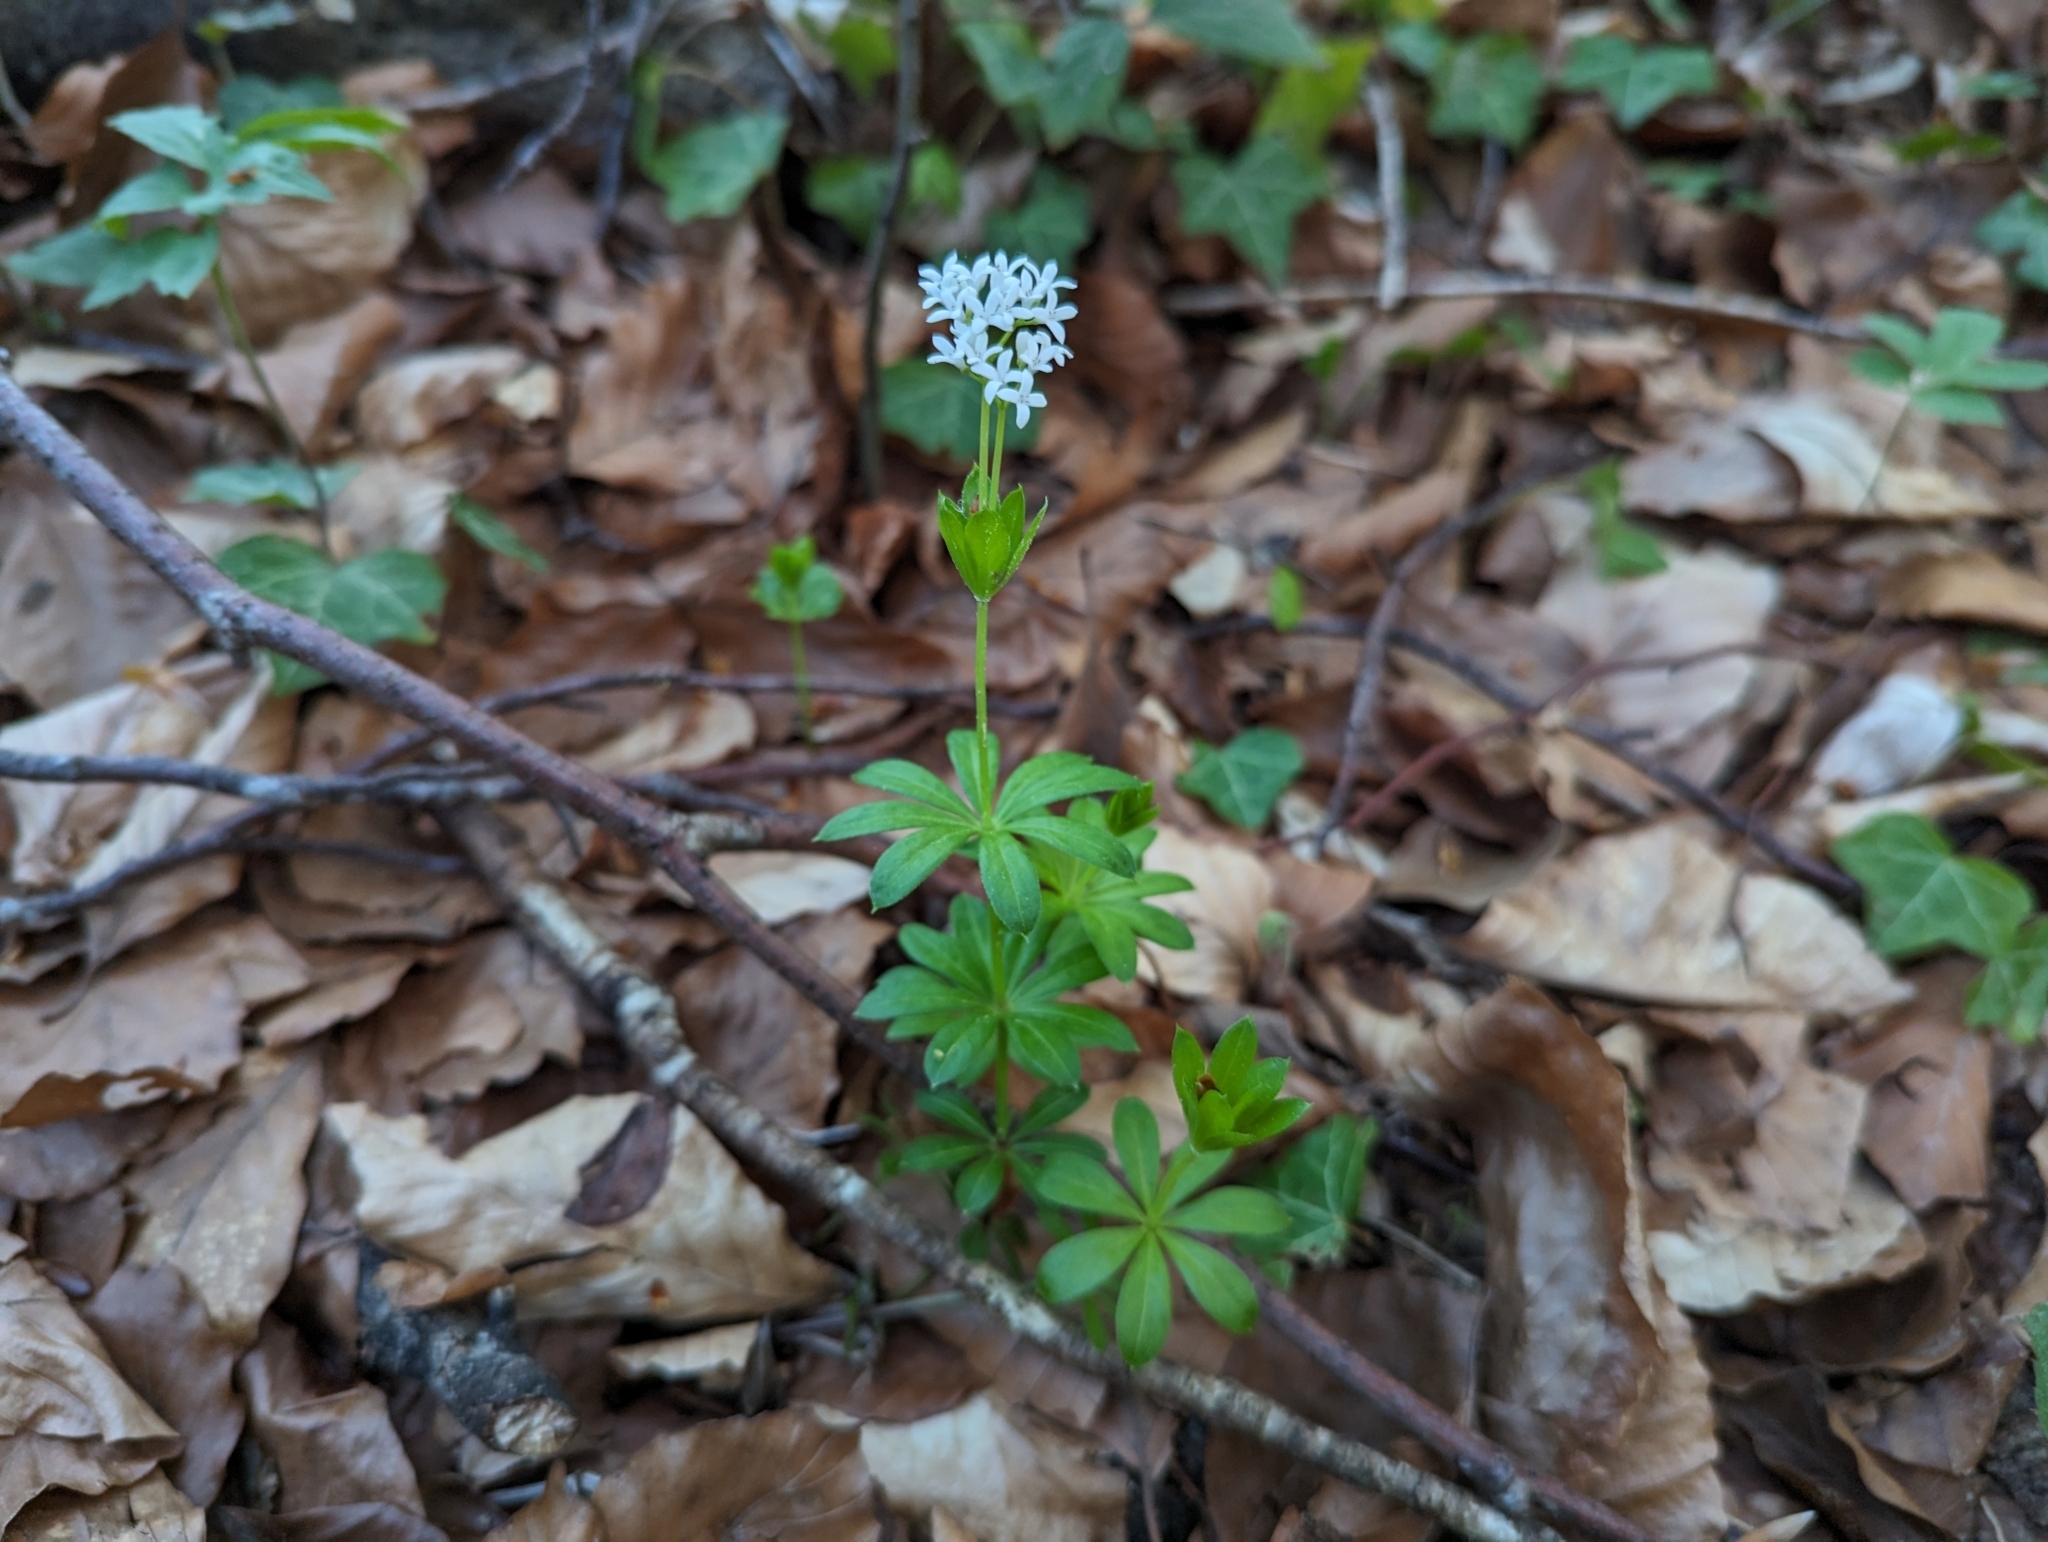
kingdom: Plantae
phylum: Tracheophyta
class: Magnoliopsida
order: Gentianales
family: Rubiaceae
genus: Galium
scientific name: Galium odoratum
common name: Sweet woodruff
